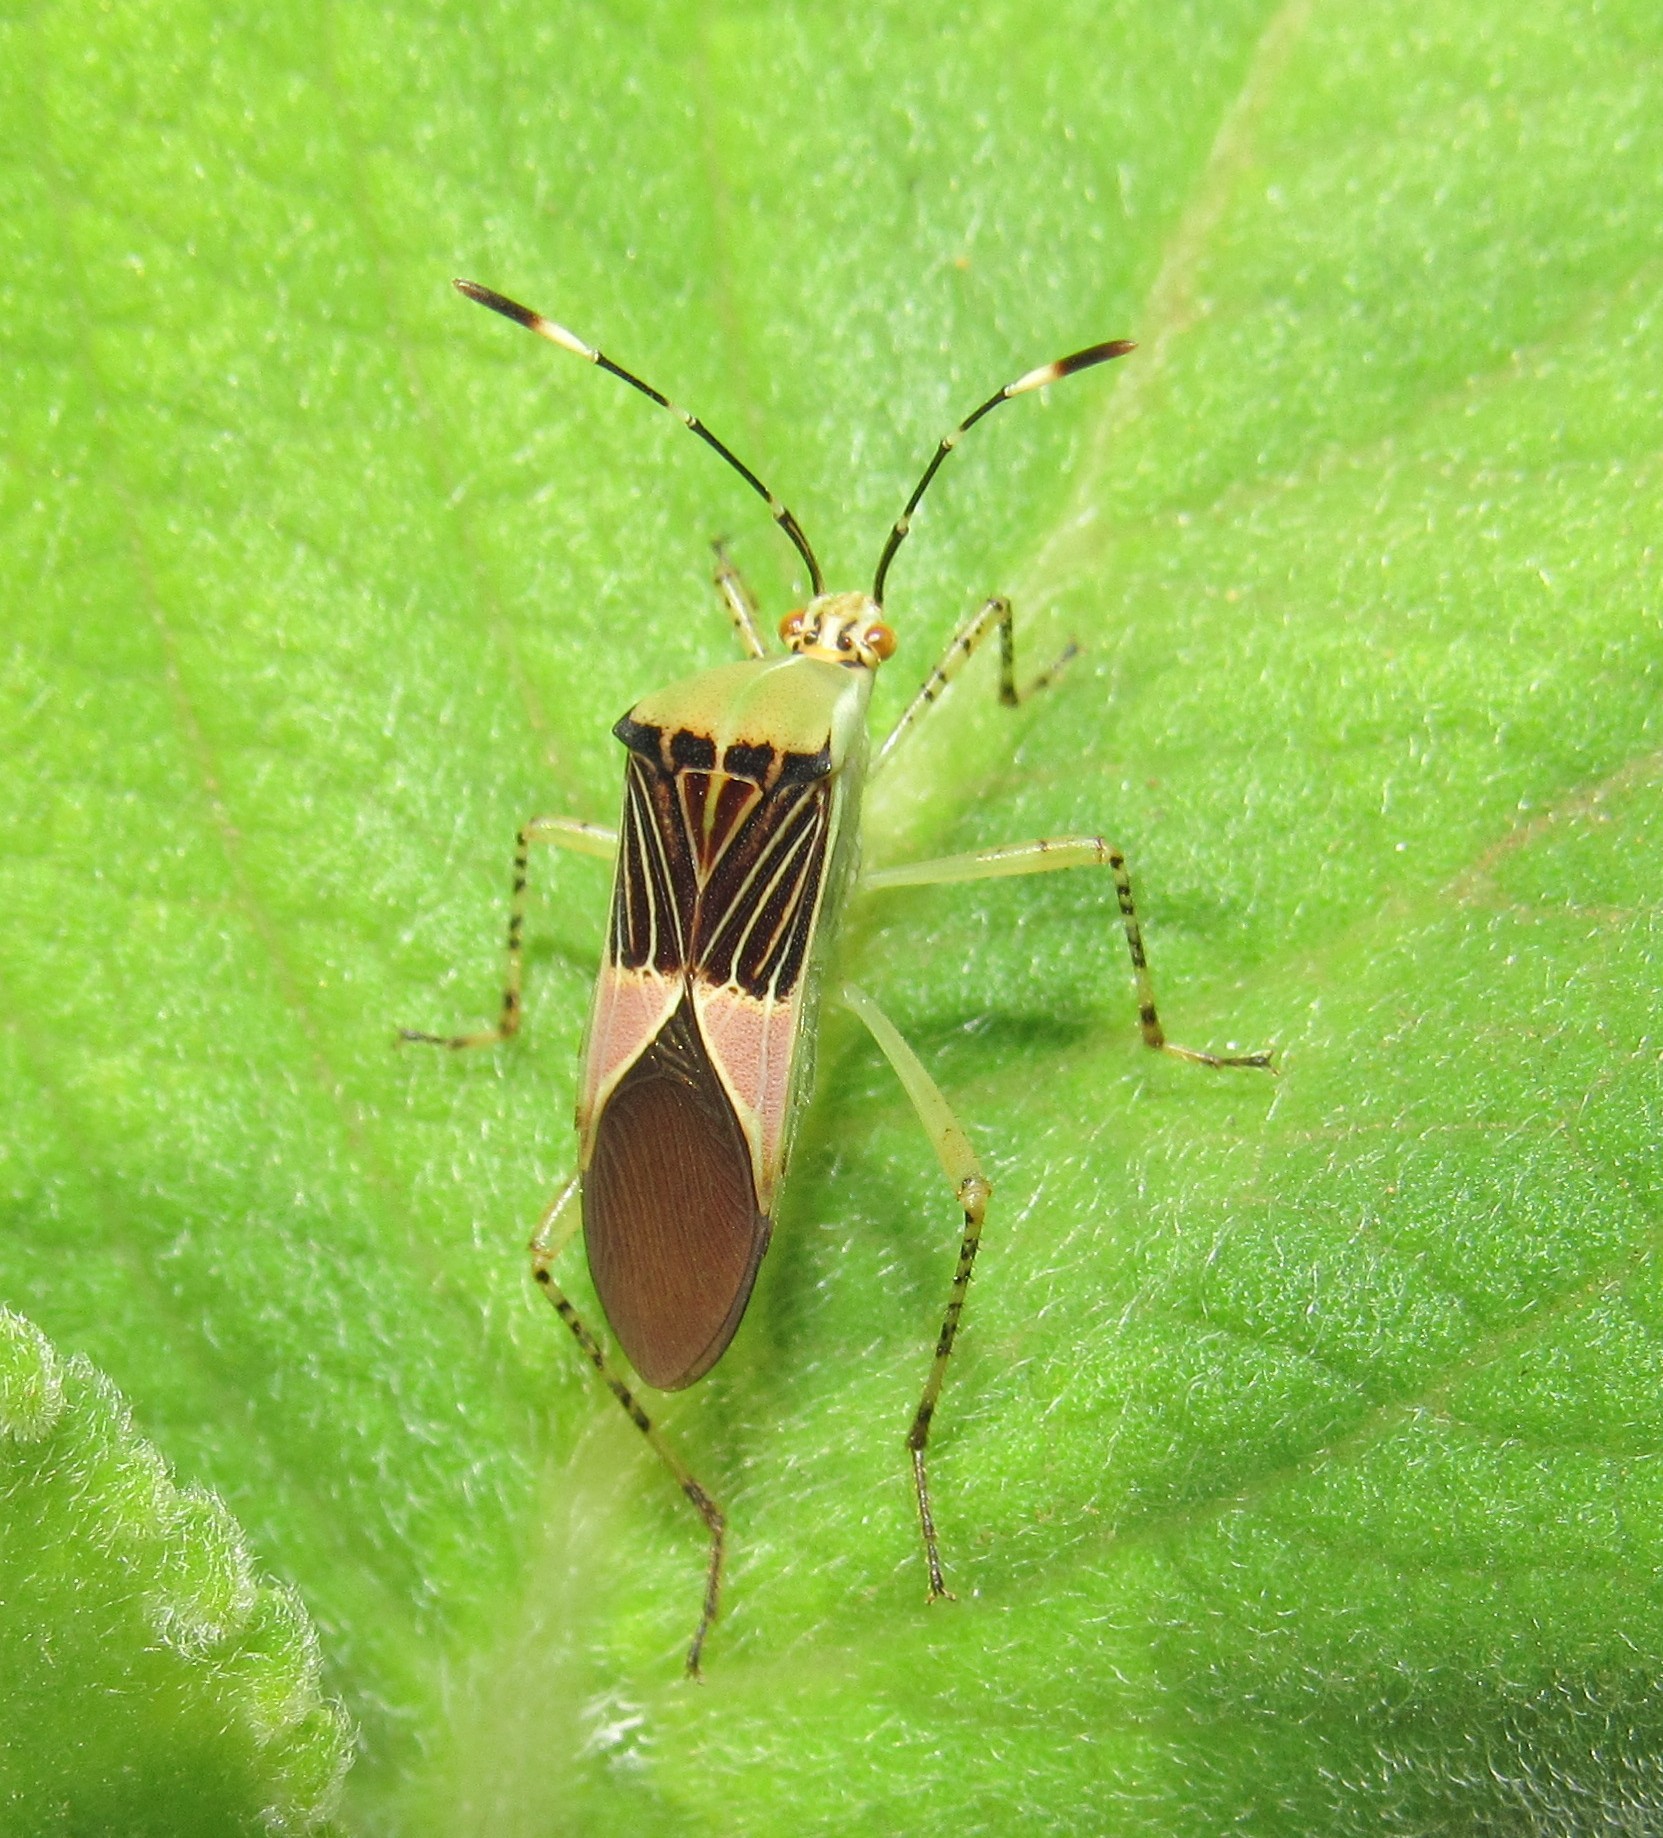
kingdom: Animalia
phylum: Arthropoda
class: Insecta
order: Hemiptera
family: Coreidae
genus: Hypselonotus
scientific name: Hypselonotus fulvus
